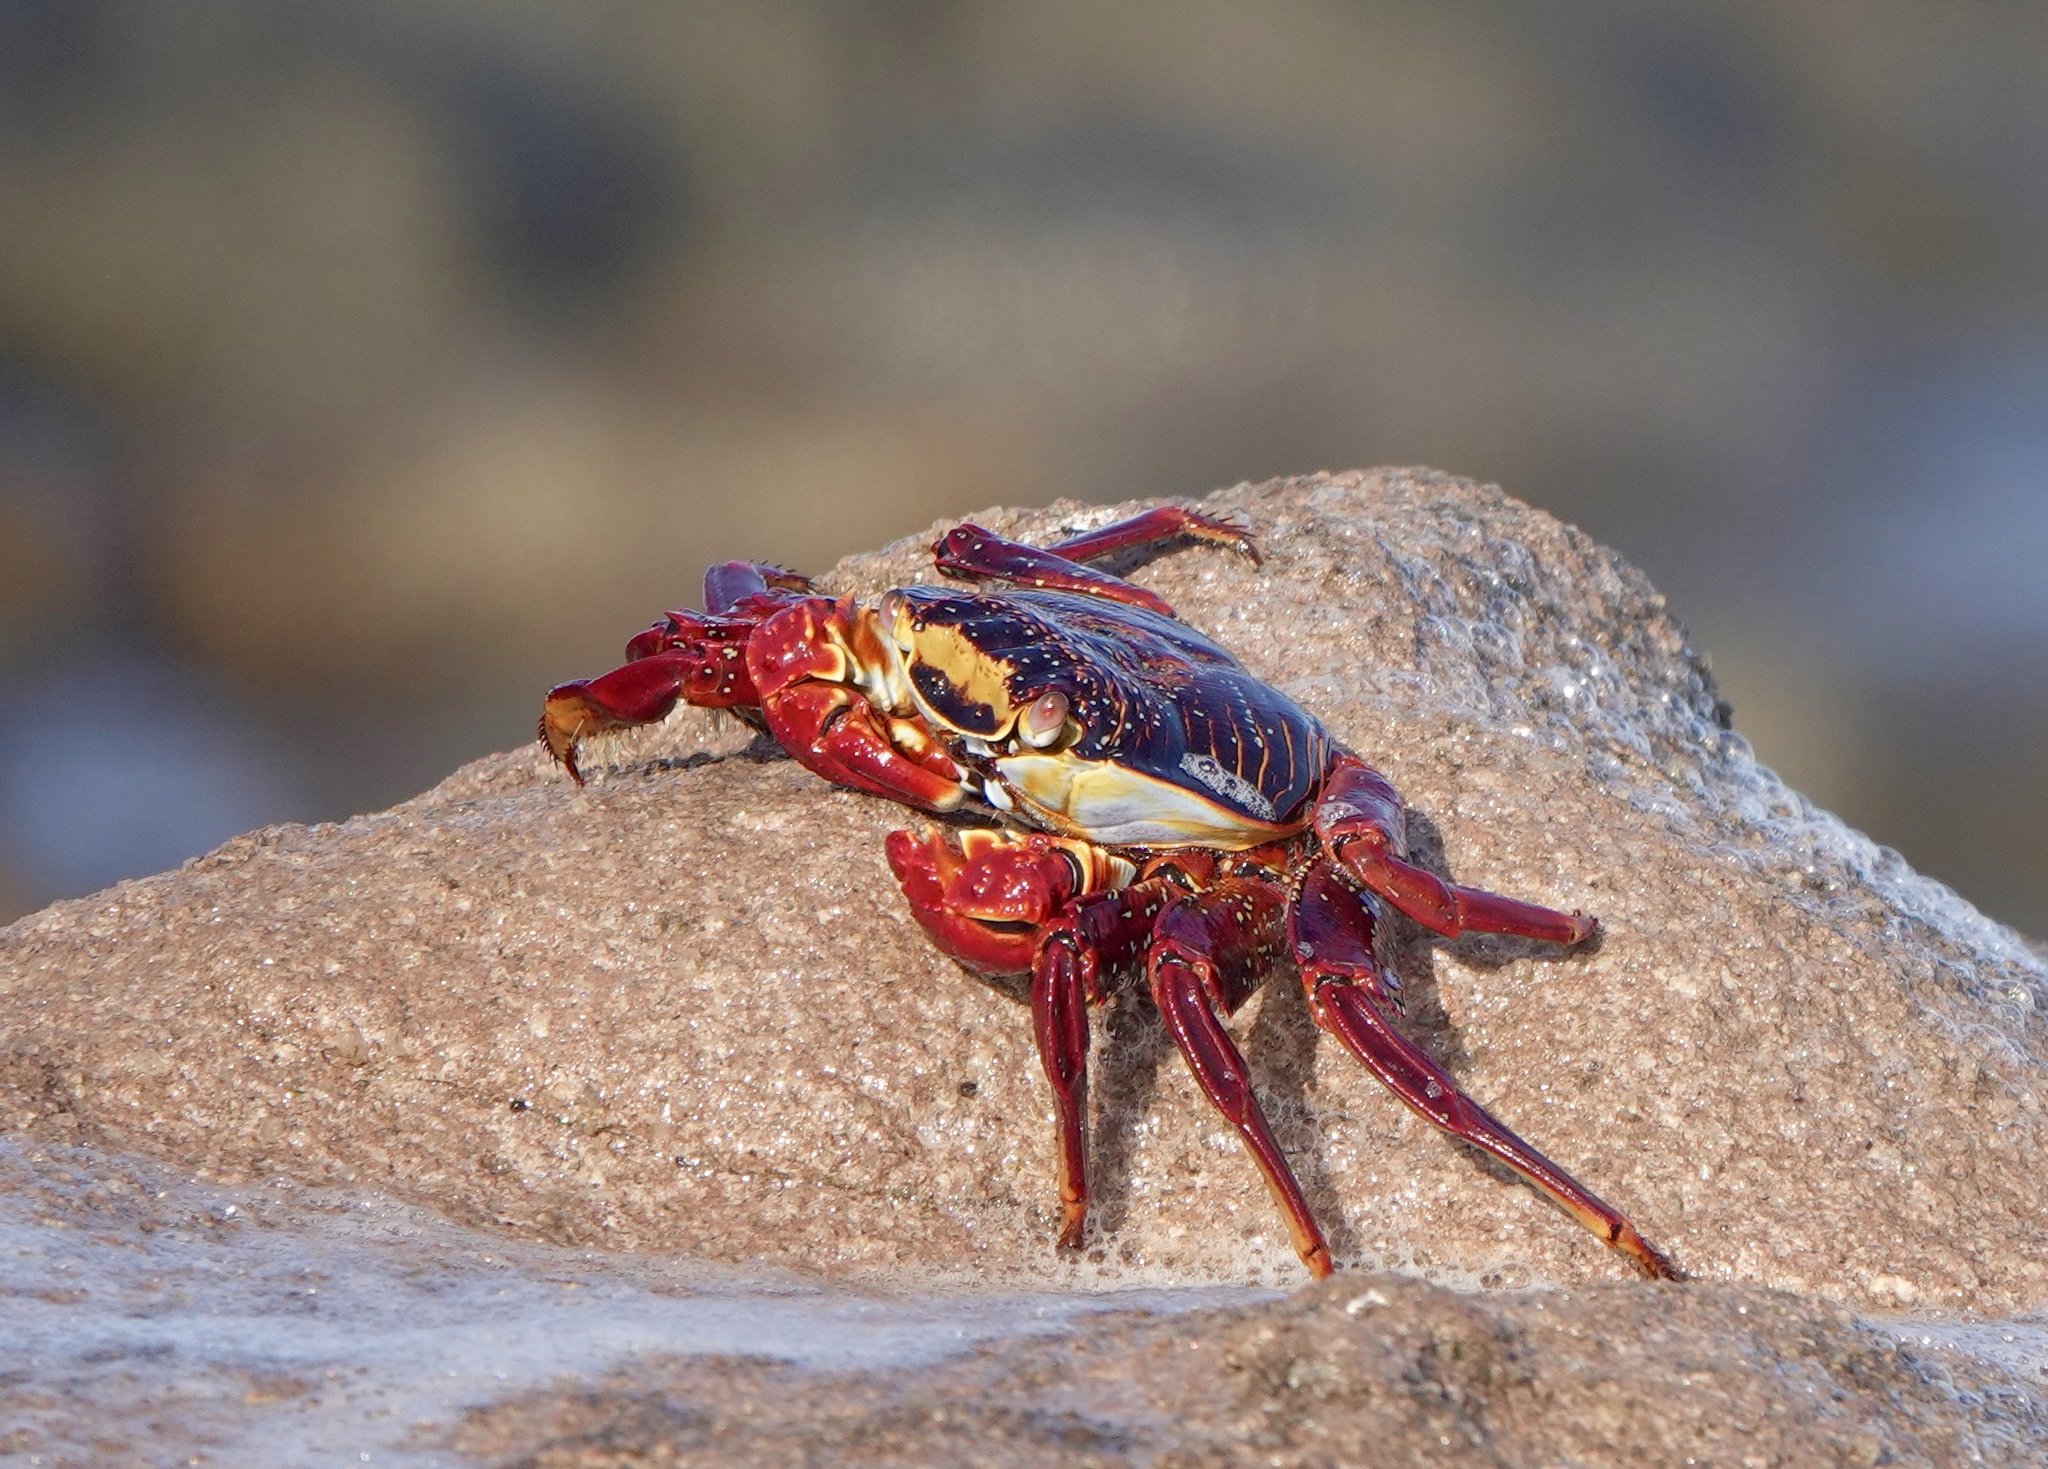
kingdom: Animalia
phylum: Arthropoda
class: Malacostraca
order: Decapoda
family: Grapsidae
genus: Grapsus
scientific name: Grapsus grapsus
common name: Sally lightfoot
